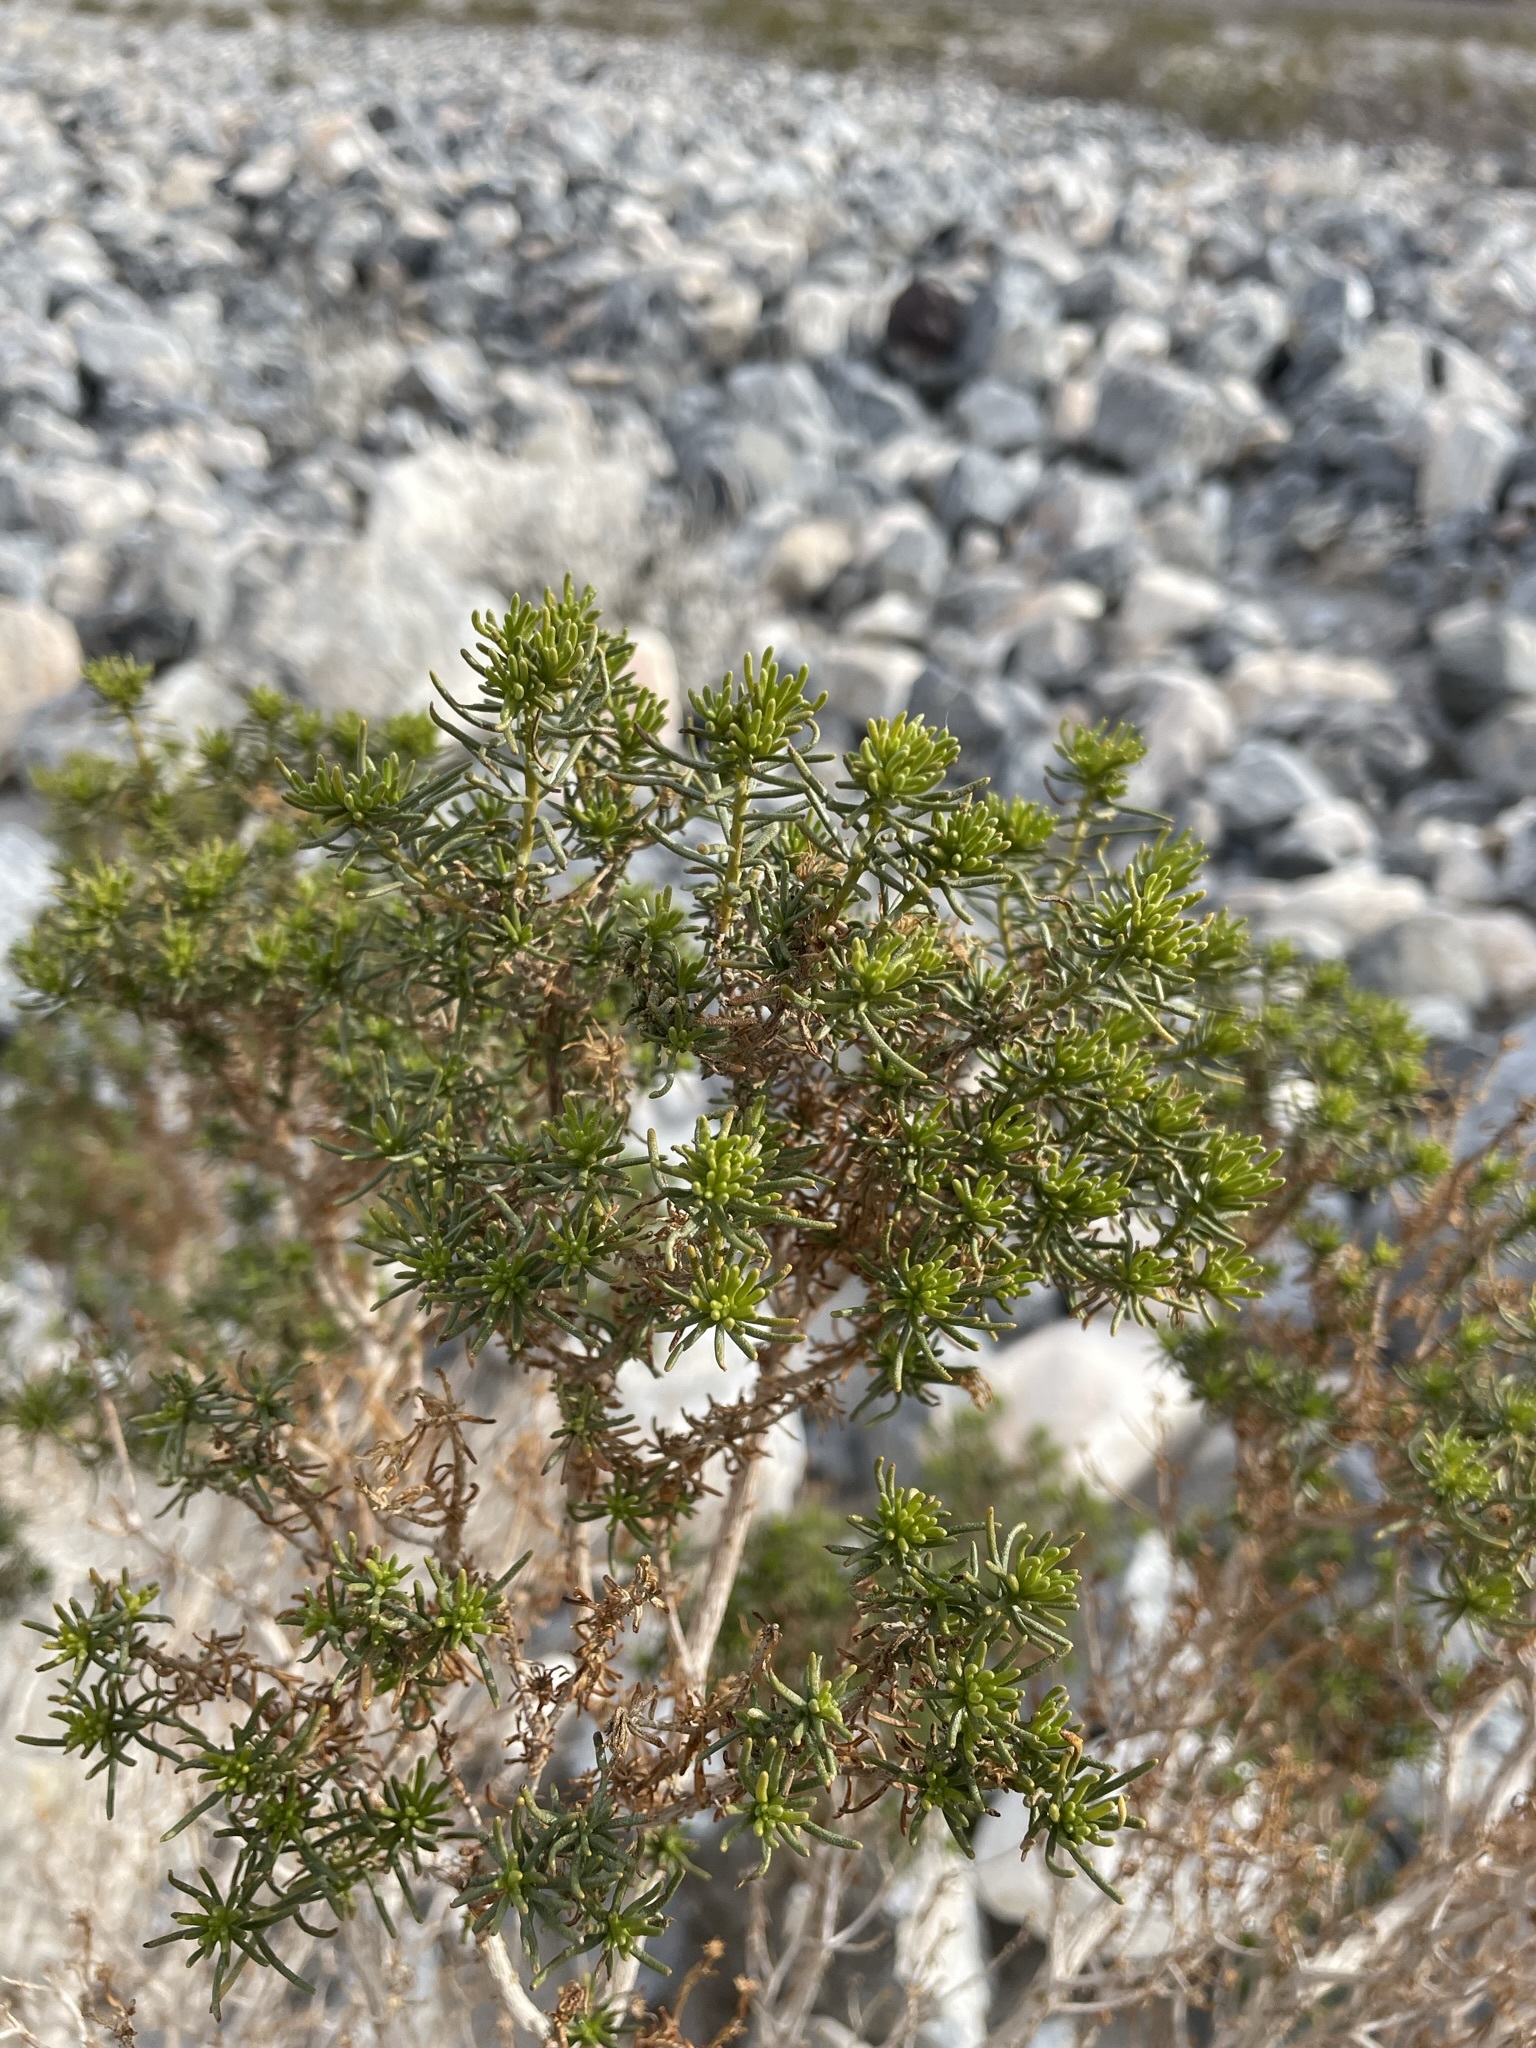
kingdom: Plantae
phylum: Tracheophyta
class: Magnoliopsida
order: Asterales
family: Asteraceae
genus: Peucephyllum
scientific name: Peucephyllum schottii
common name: Pygmy-cedar
